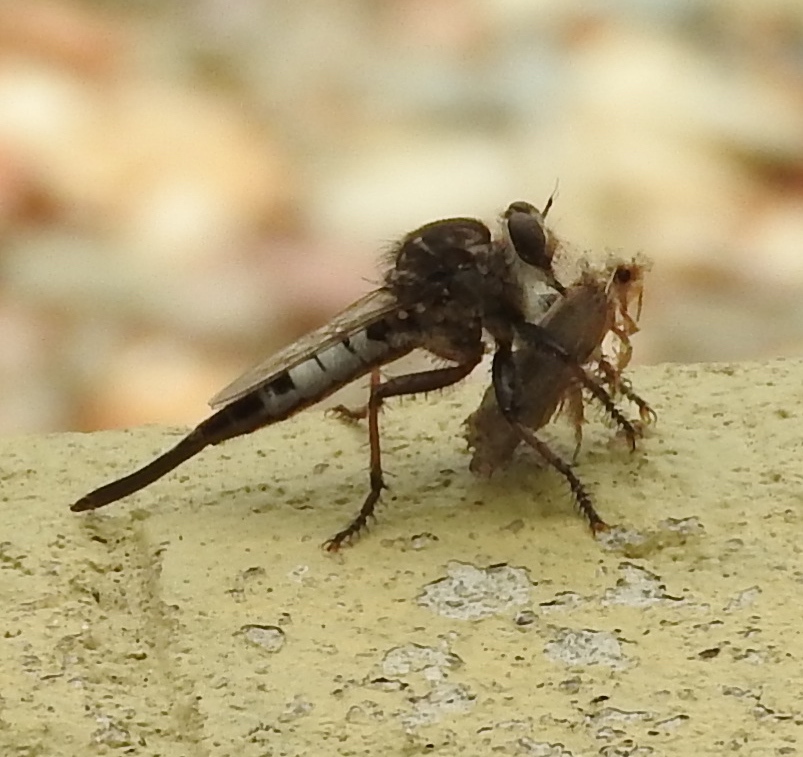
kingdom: Animalia
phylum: Arthropoda
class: Insecta
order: Diptera
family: Asilidae
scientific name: Asilidae
